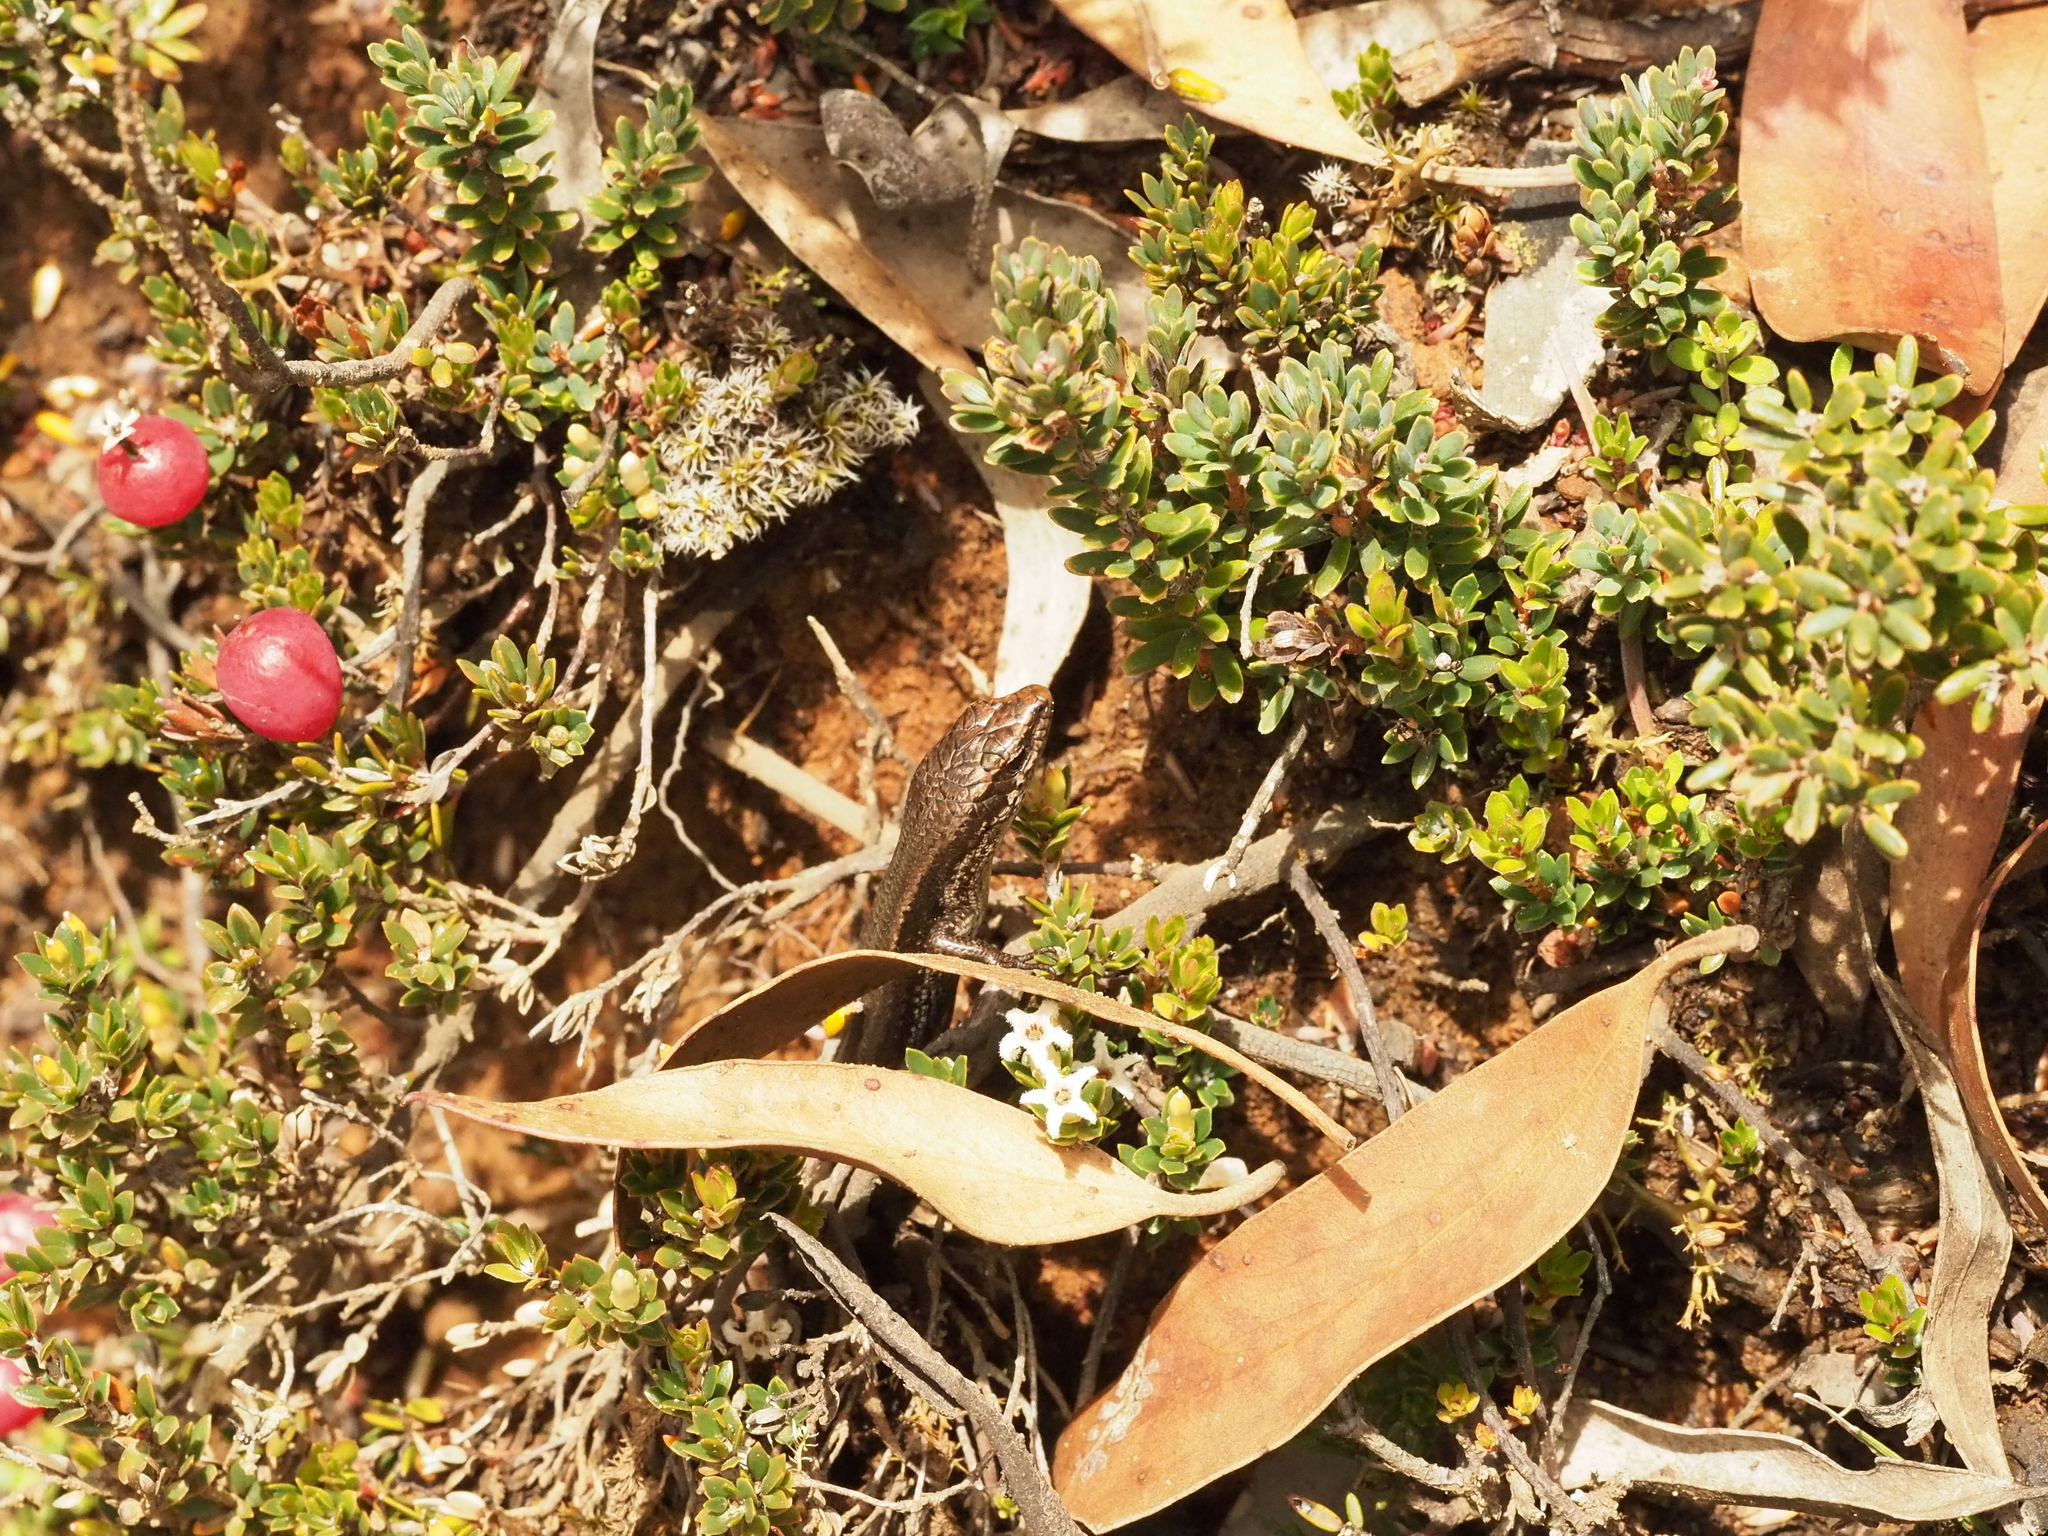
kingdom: Animalia
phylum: Chordata
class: Squamata
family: Scincidae
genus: Carinascincus
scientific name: Carinascincus metallicus
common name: Metallic cool-skink
